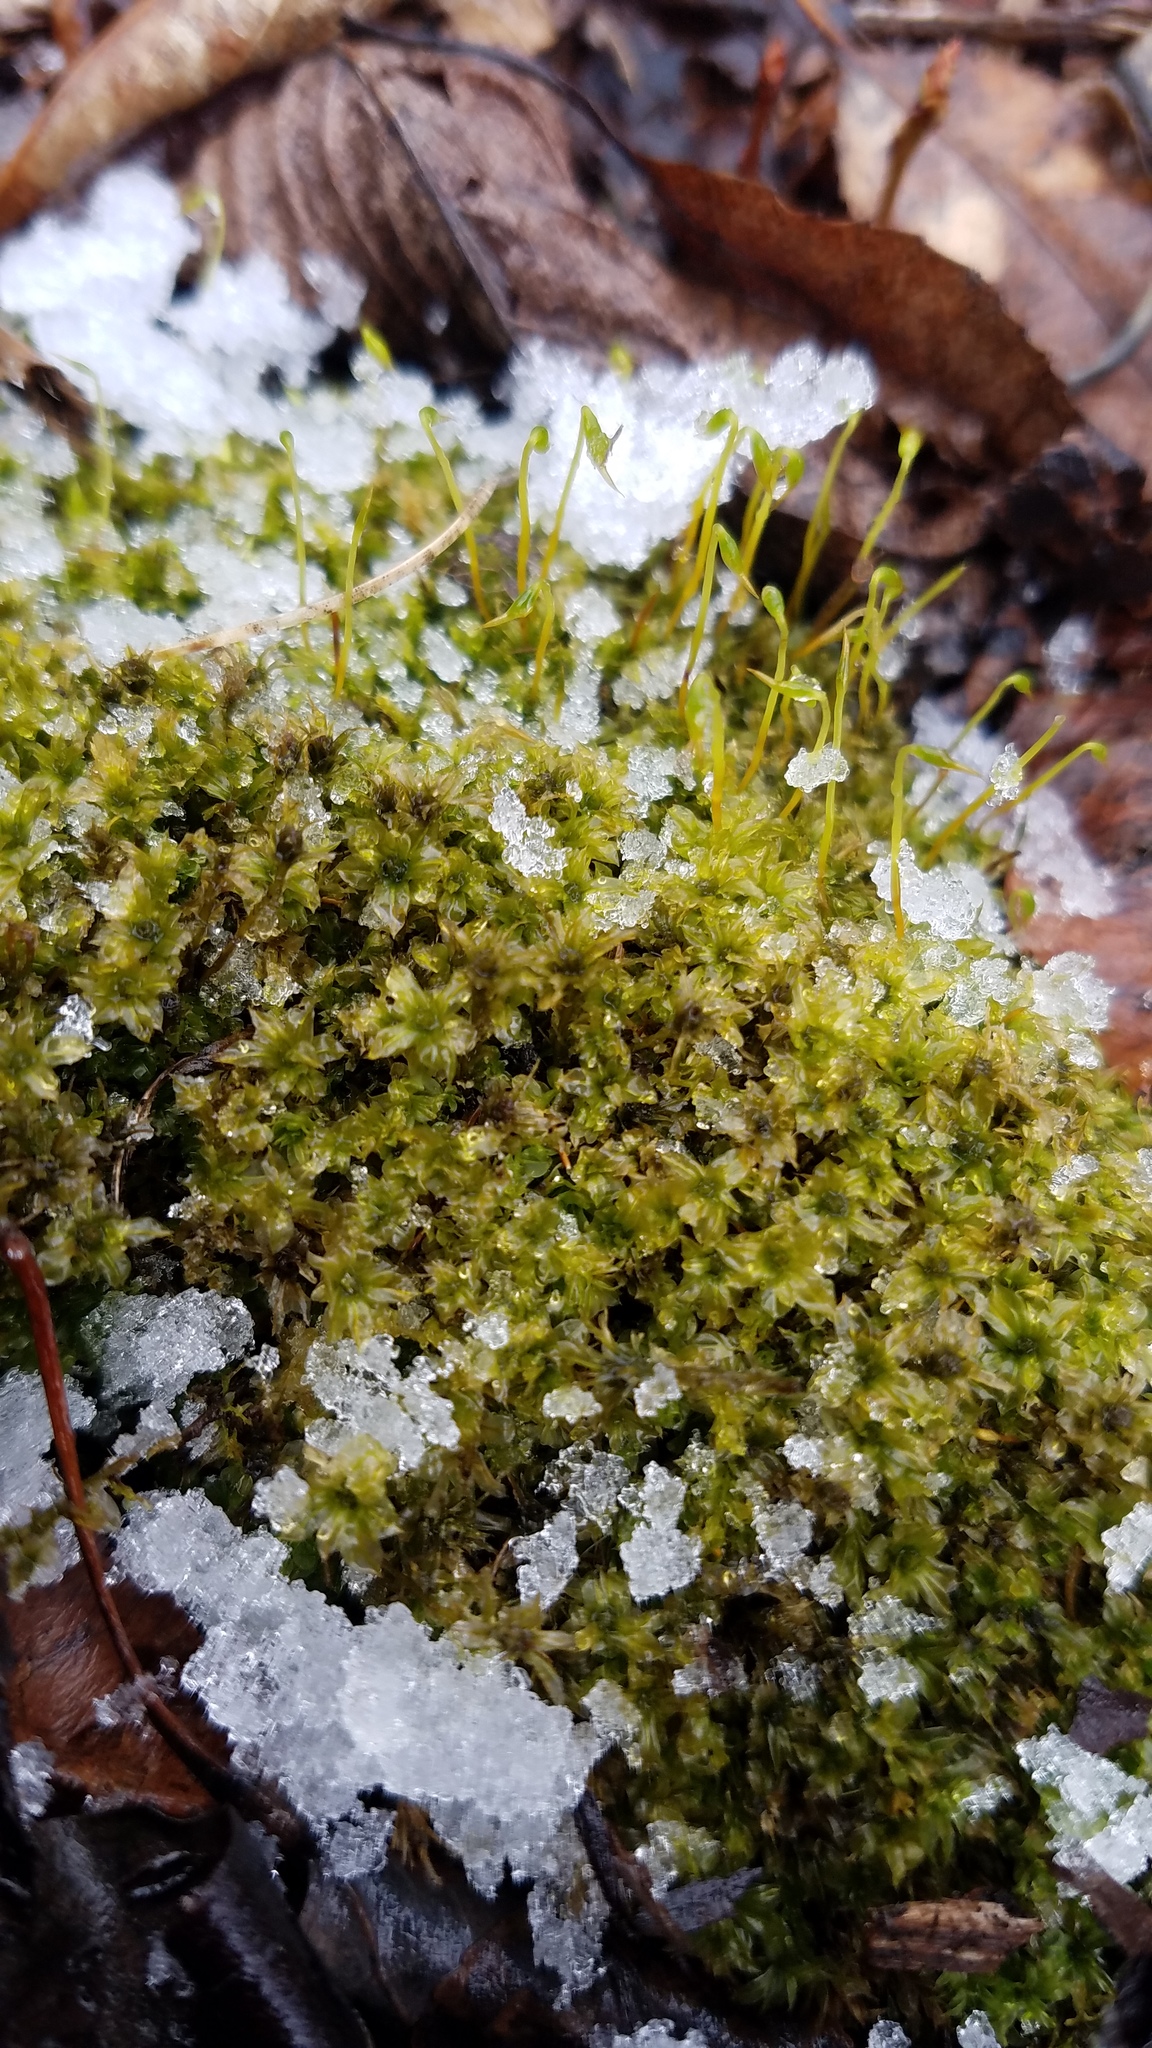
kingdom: Plantae
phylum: Bryophyta
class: Bryopsida
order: Bryales
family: Mniaceae
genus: Plagiomnium
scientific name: Plagiomnium cuspidatum
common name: Woodsy leafy moss
